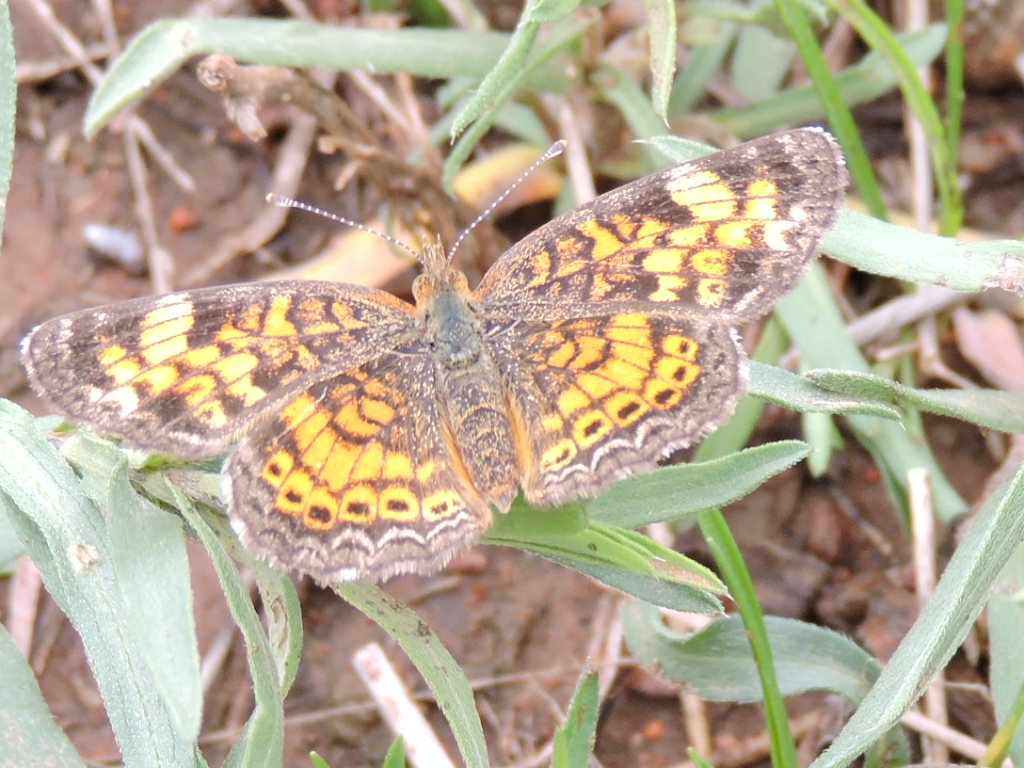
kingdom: Animalia
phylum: Arthropoda
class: Insecta
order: Lepidoptera
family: Nymphalidae
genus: Phyciodes
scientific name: Phyciodes tharos
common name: Pearl crescent
